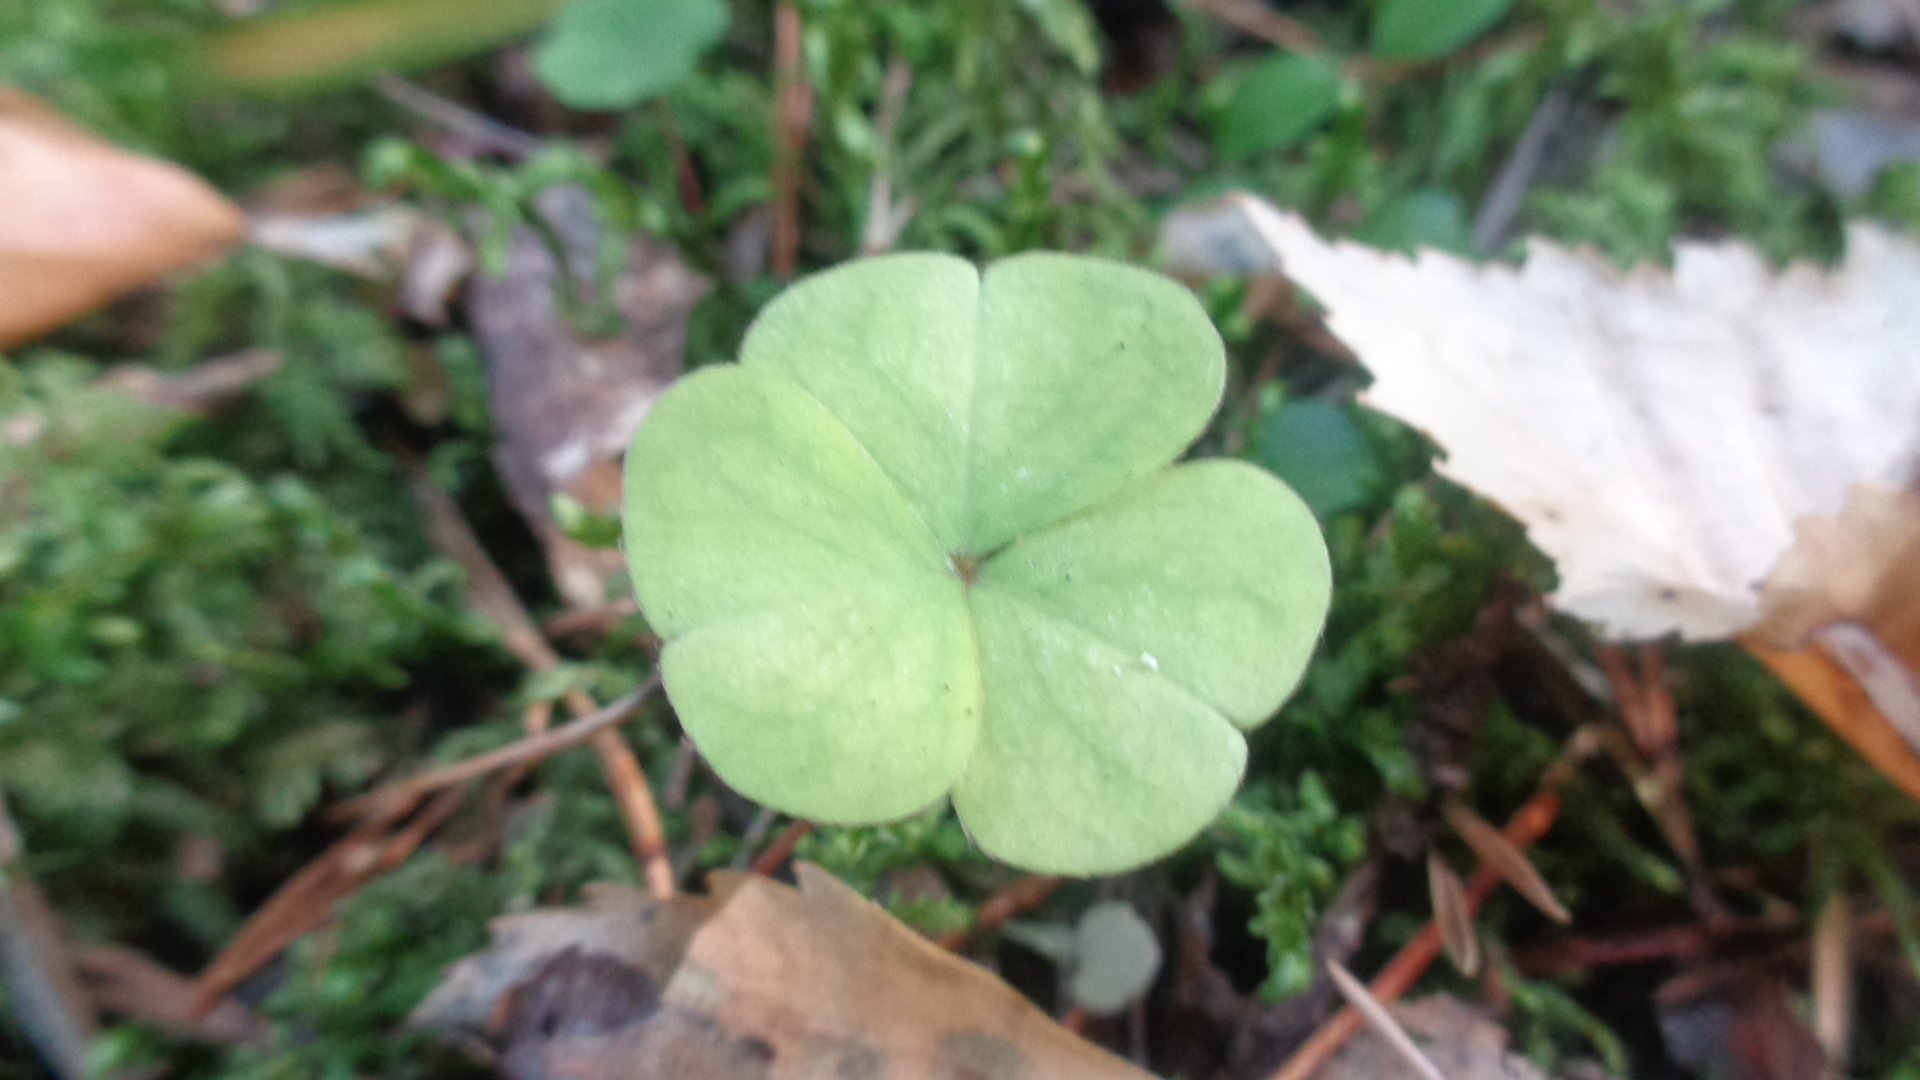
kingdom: Plantae
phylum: Tracheophyta
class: Magnoliopsida
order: Oxalidales
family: Oxalidaceae
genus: Oxalis
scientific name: Oxalis acetosella
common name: Wood-sorrel
